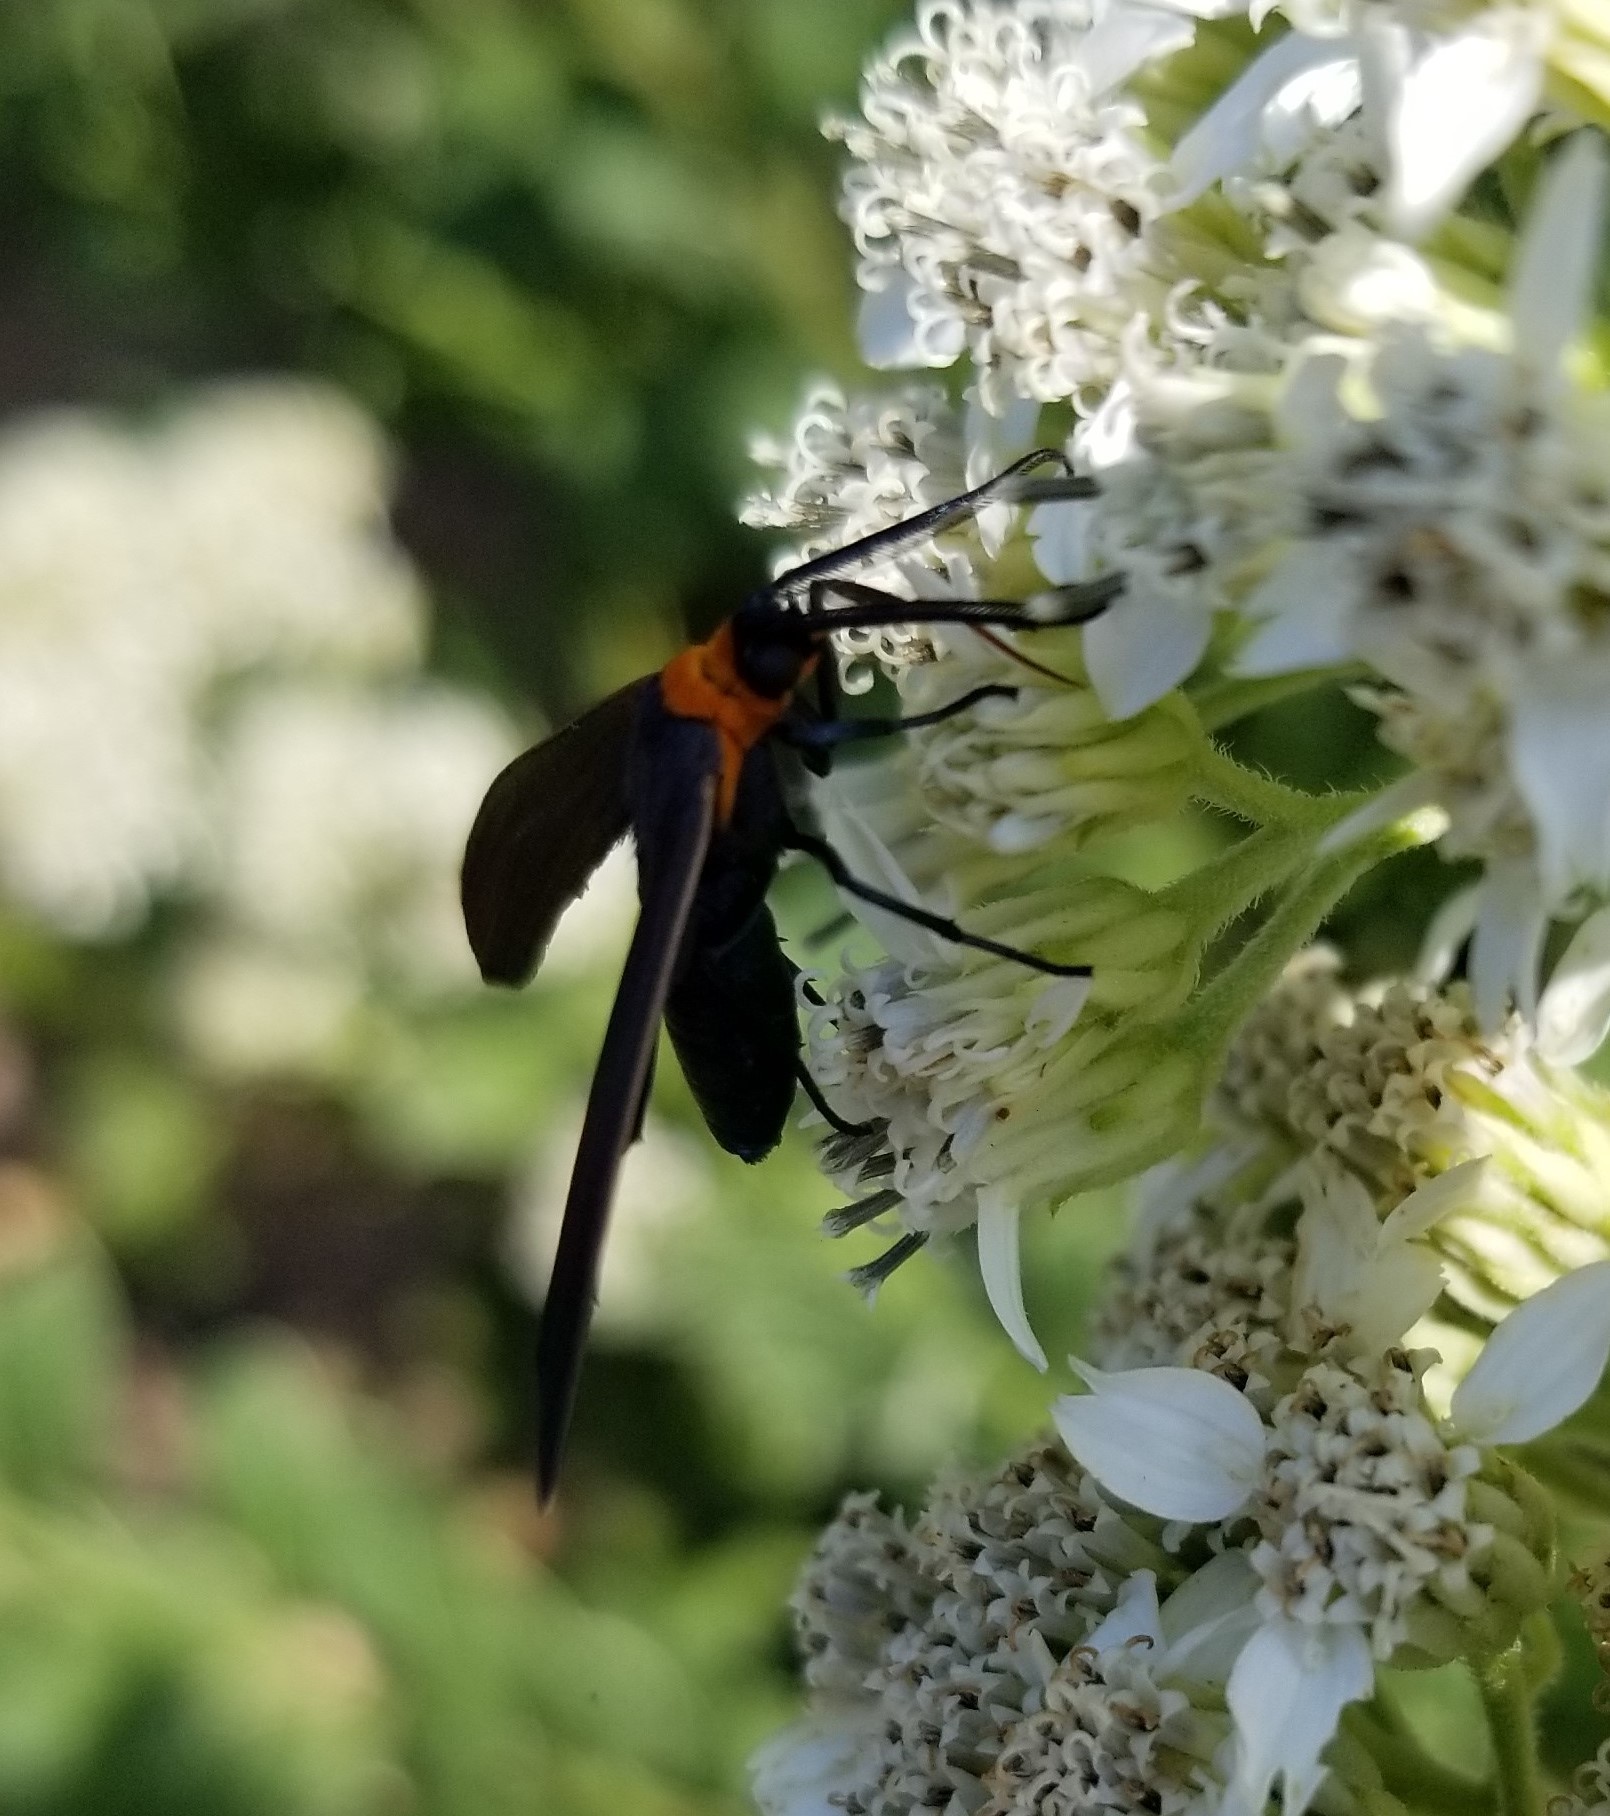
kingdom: Animalia
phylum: Arthropoda
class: Insecta
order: Lepidoptera
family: Erebidae
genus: Cisseps
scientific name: Cisseps fulvicollis
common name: Yellow-collared scape moth
